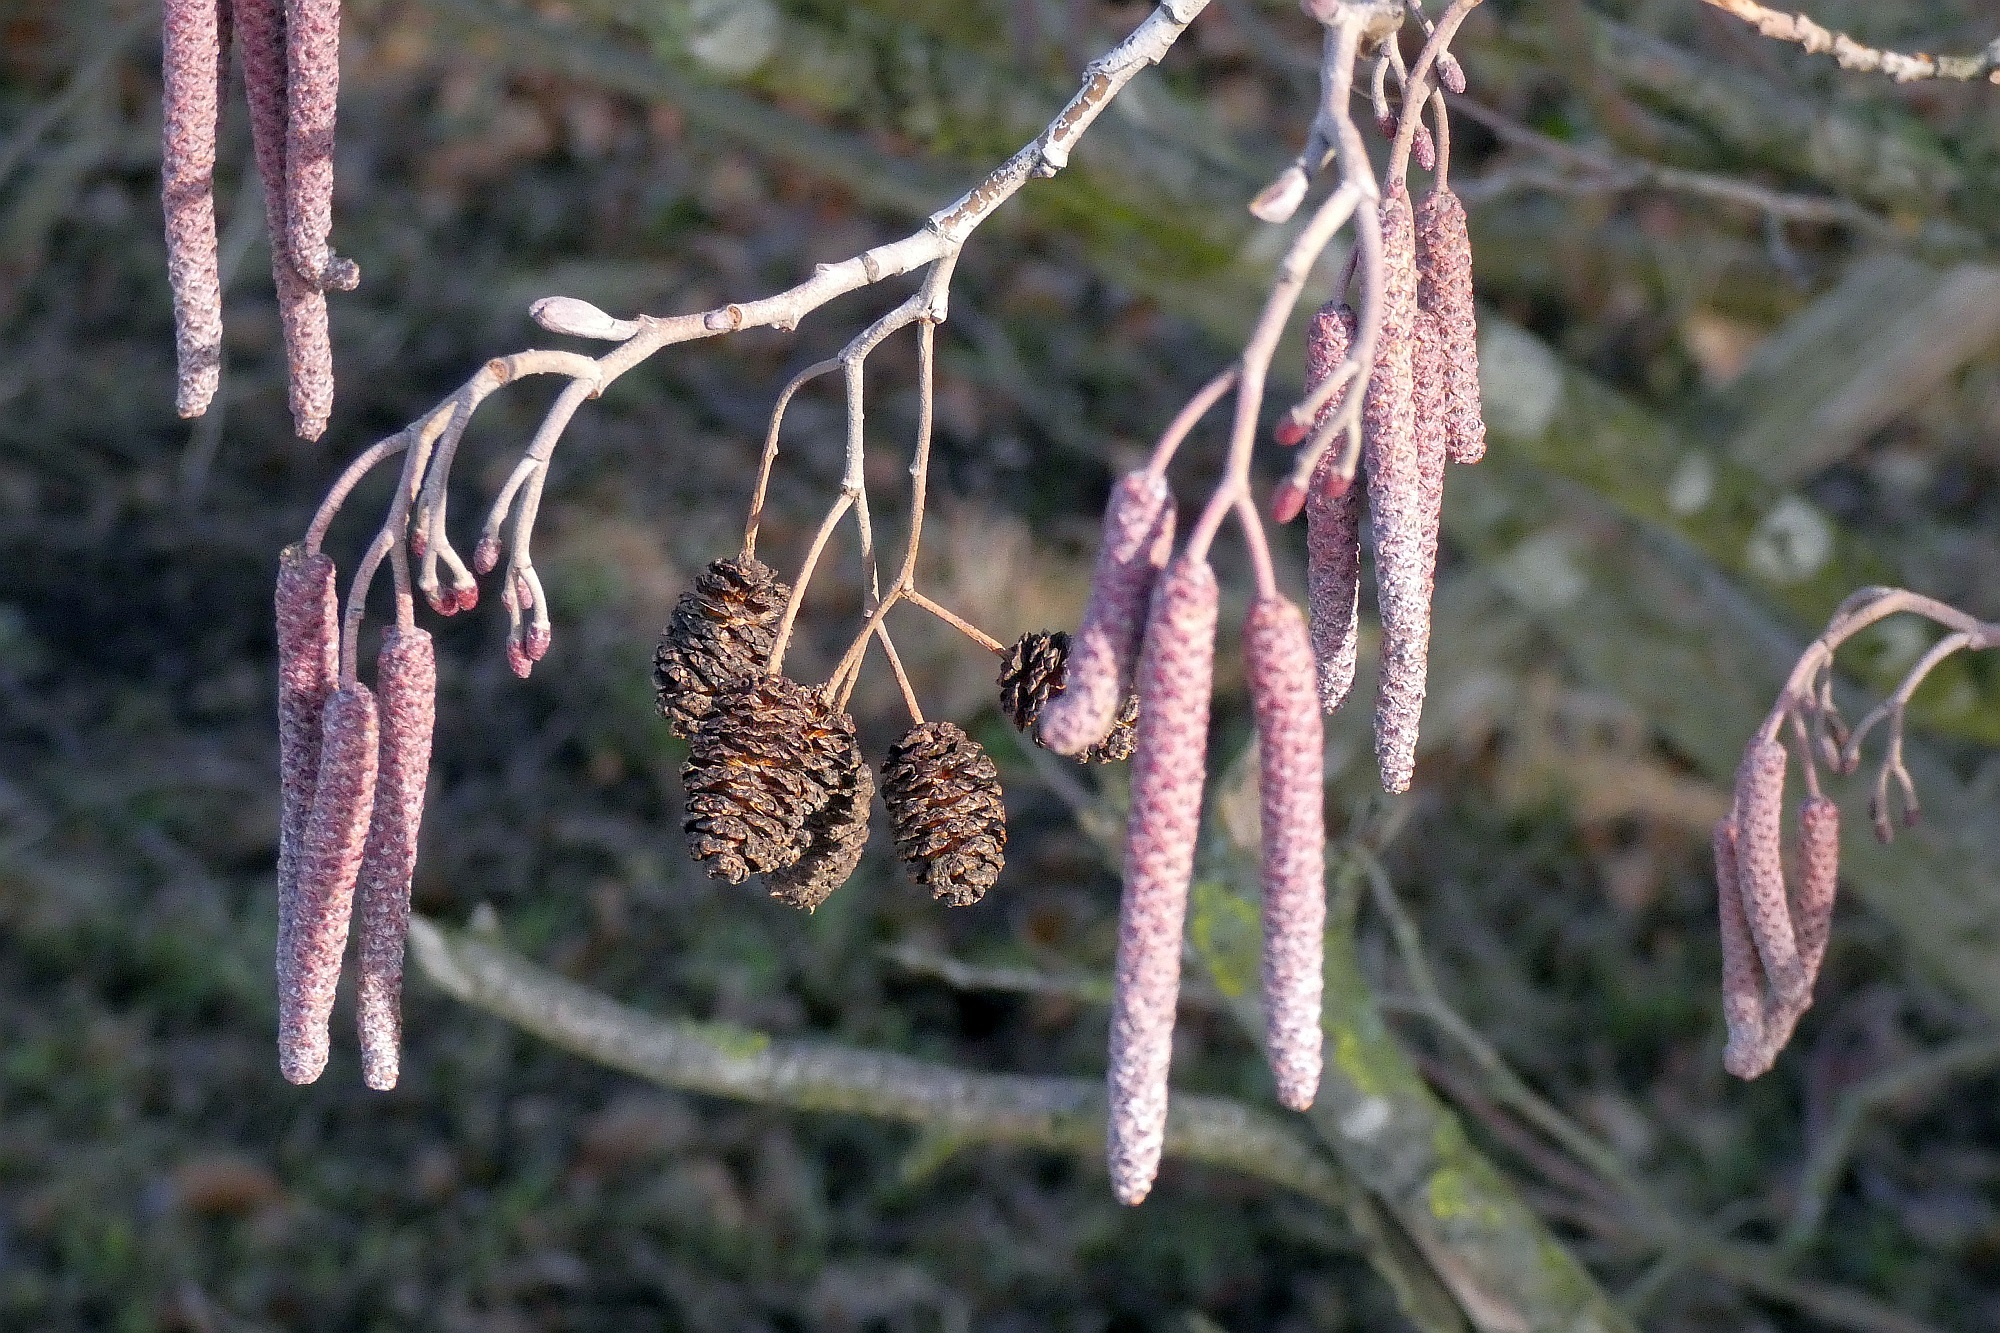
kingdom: Plantae
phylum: Tracheophyta
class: Magnoliopsida
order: Fagales
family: Betulaceae
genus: Alnus
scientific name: Alnus glutinosa
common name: Black alder
